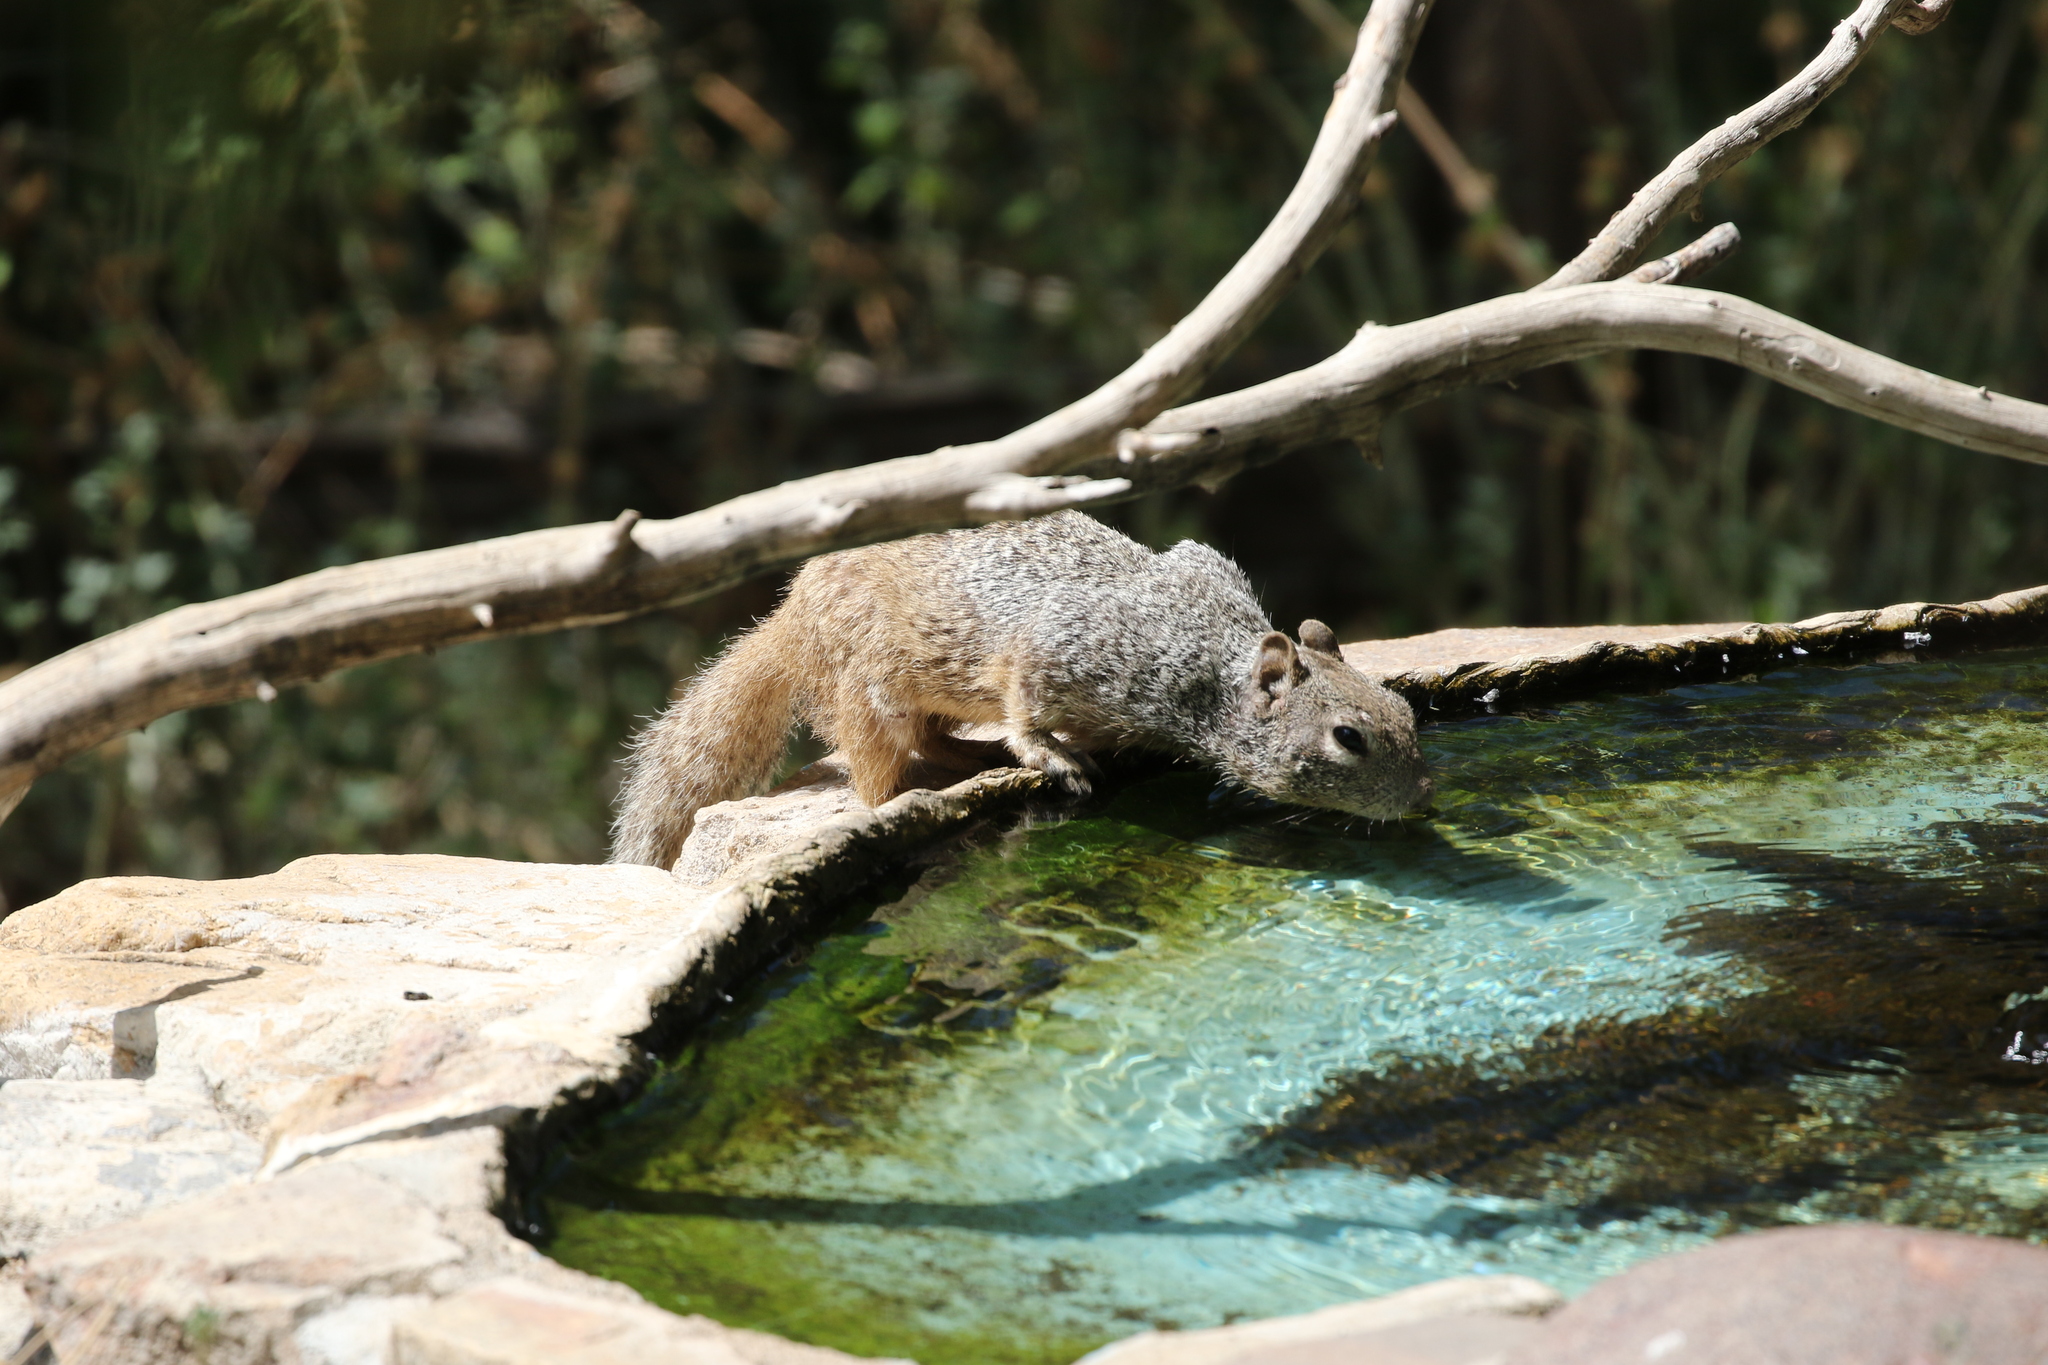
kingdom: Animalia
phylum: Chordata
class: Mammalia
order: Rodentia
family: Sciuridae
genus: Otospermophilus
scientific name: Otospermophilus variegatus
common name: Rock squirrel
